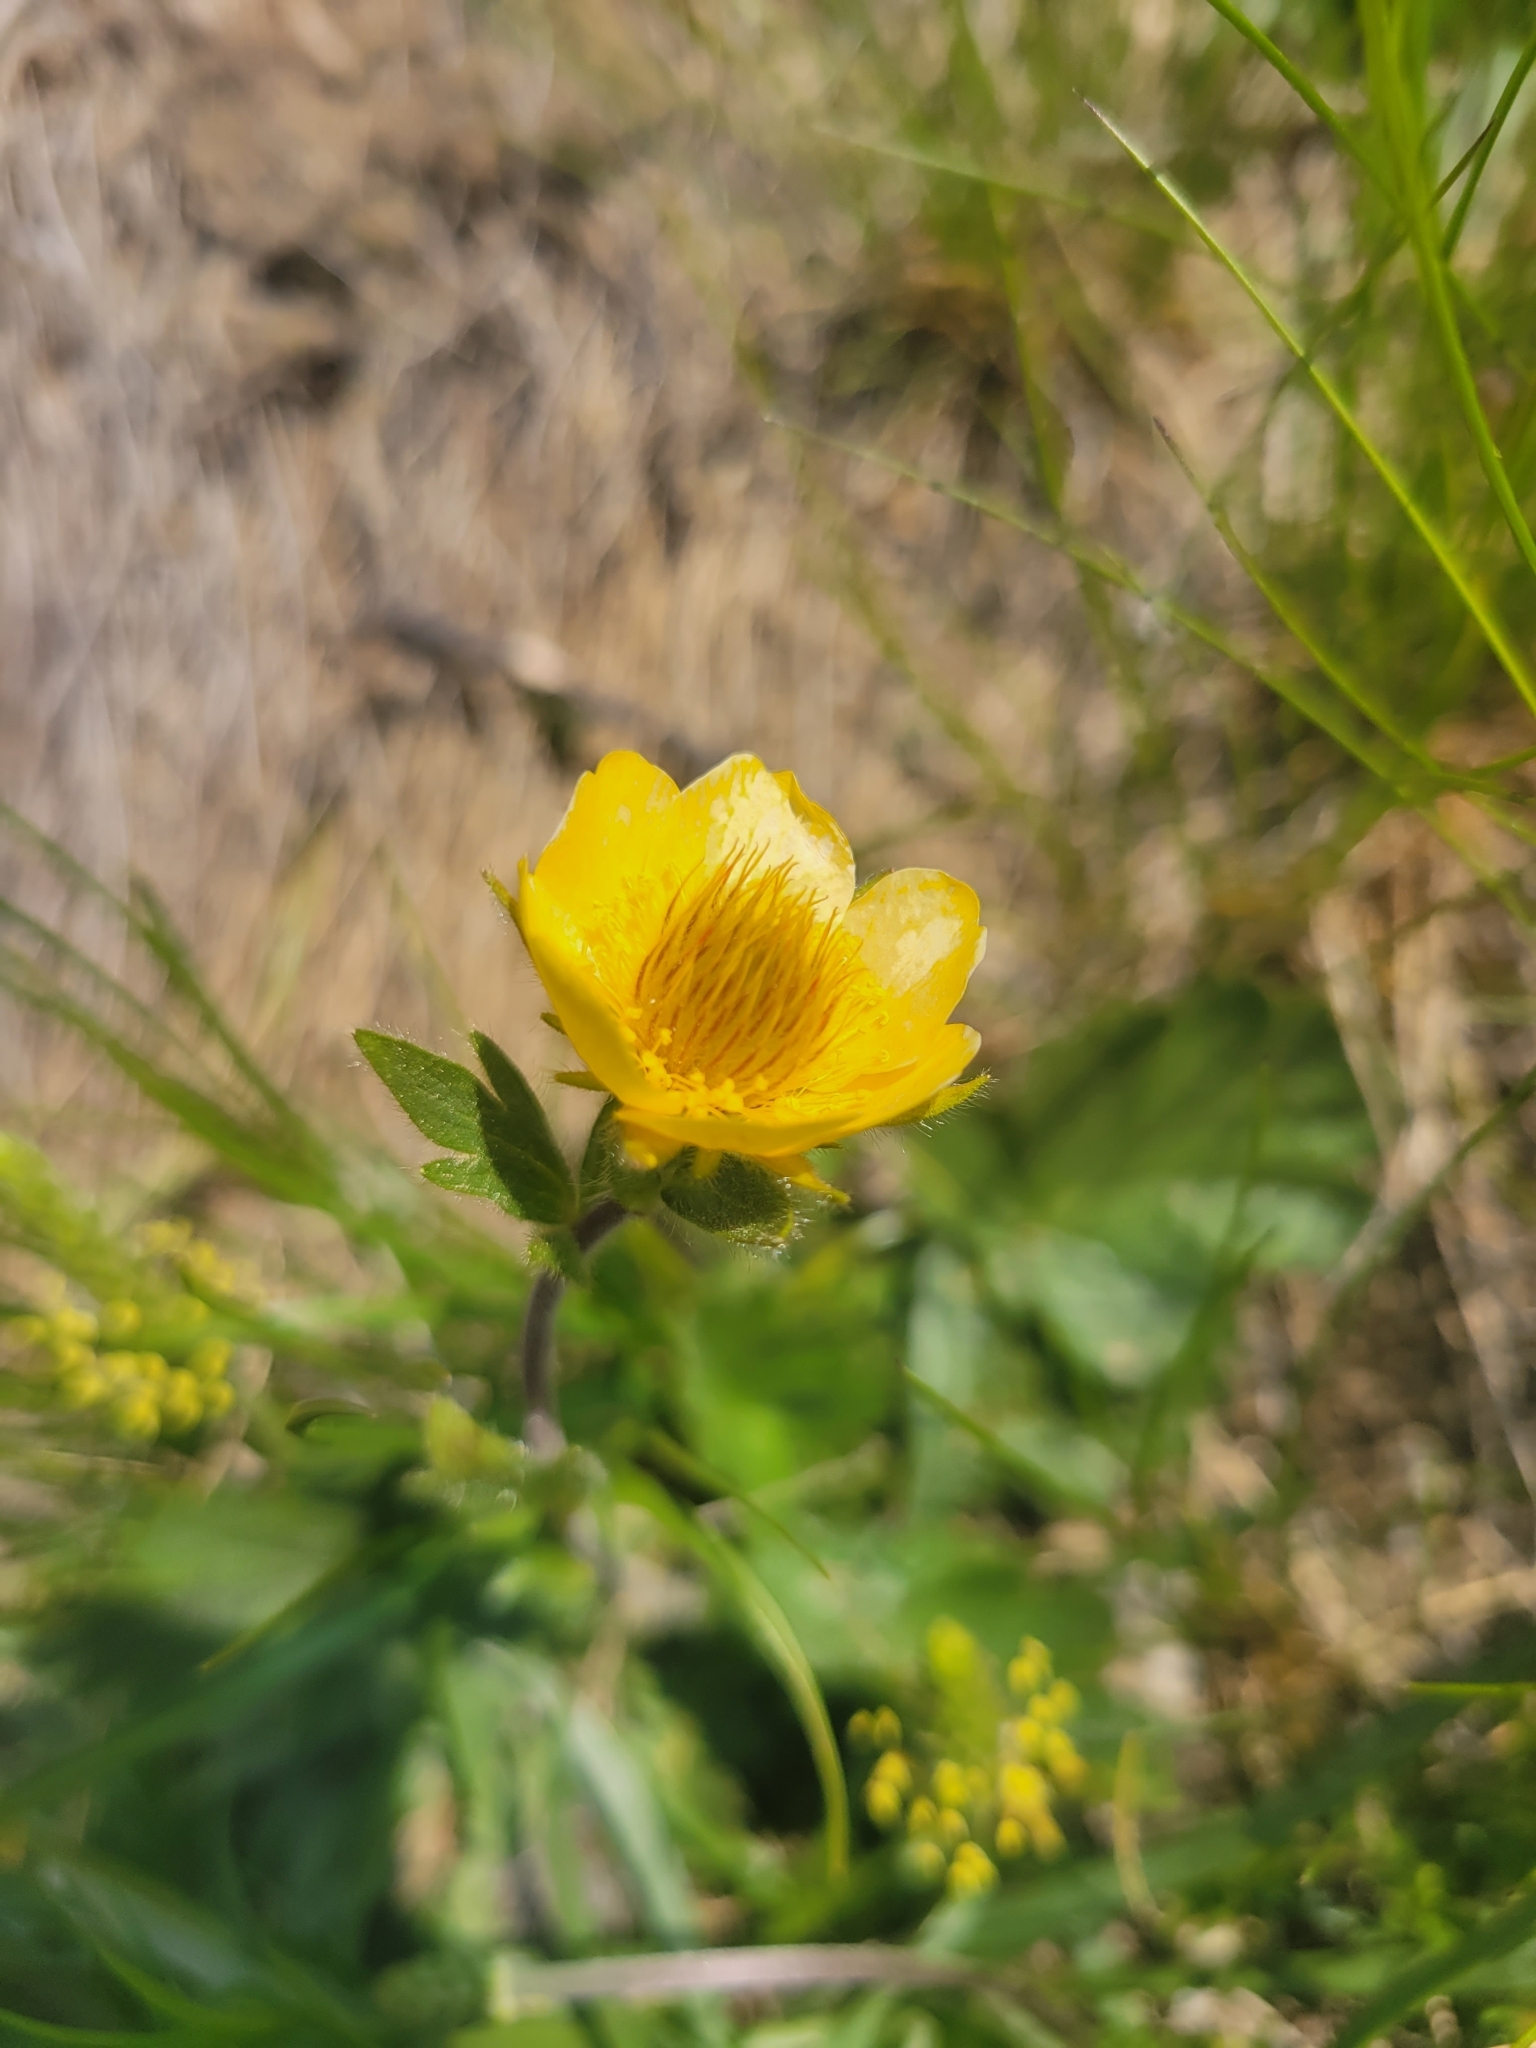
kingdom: Plantae
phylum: Tracheophyta
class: Magnoliopsida
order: Rosales
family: Rosaceae
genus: Geum
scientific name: Geum montanum
